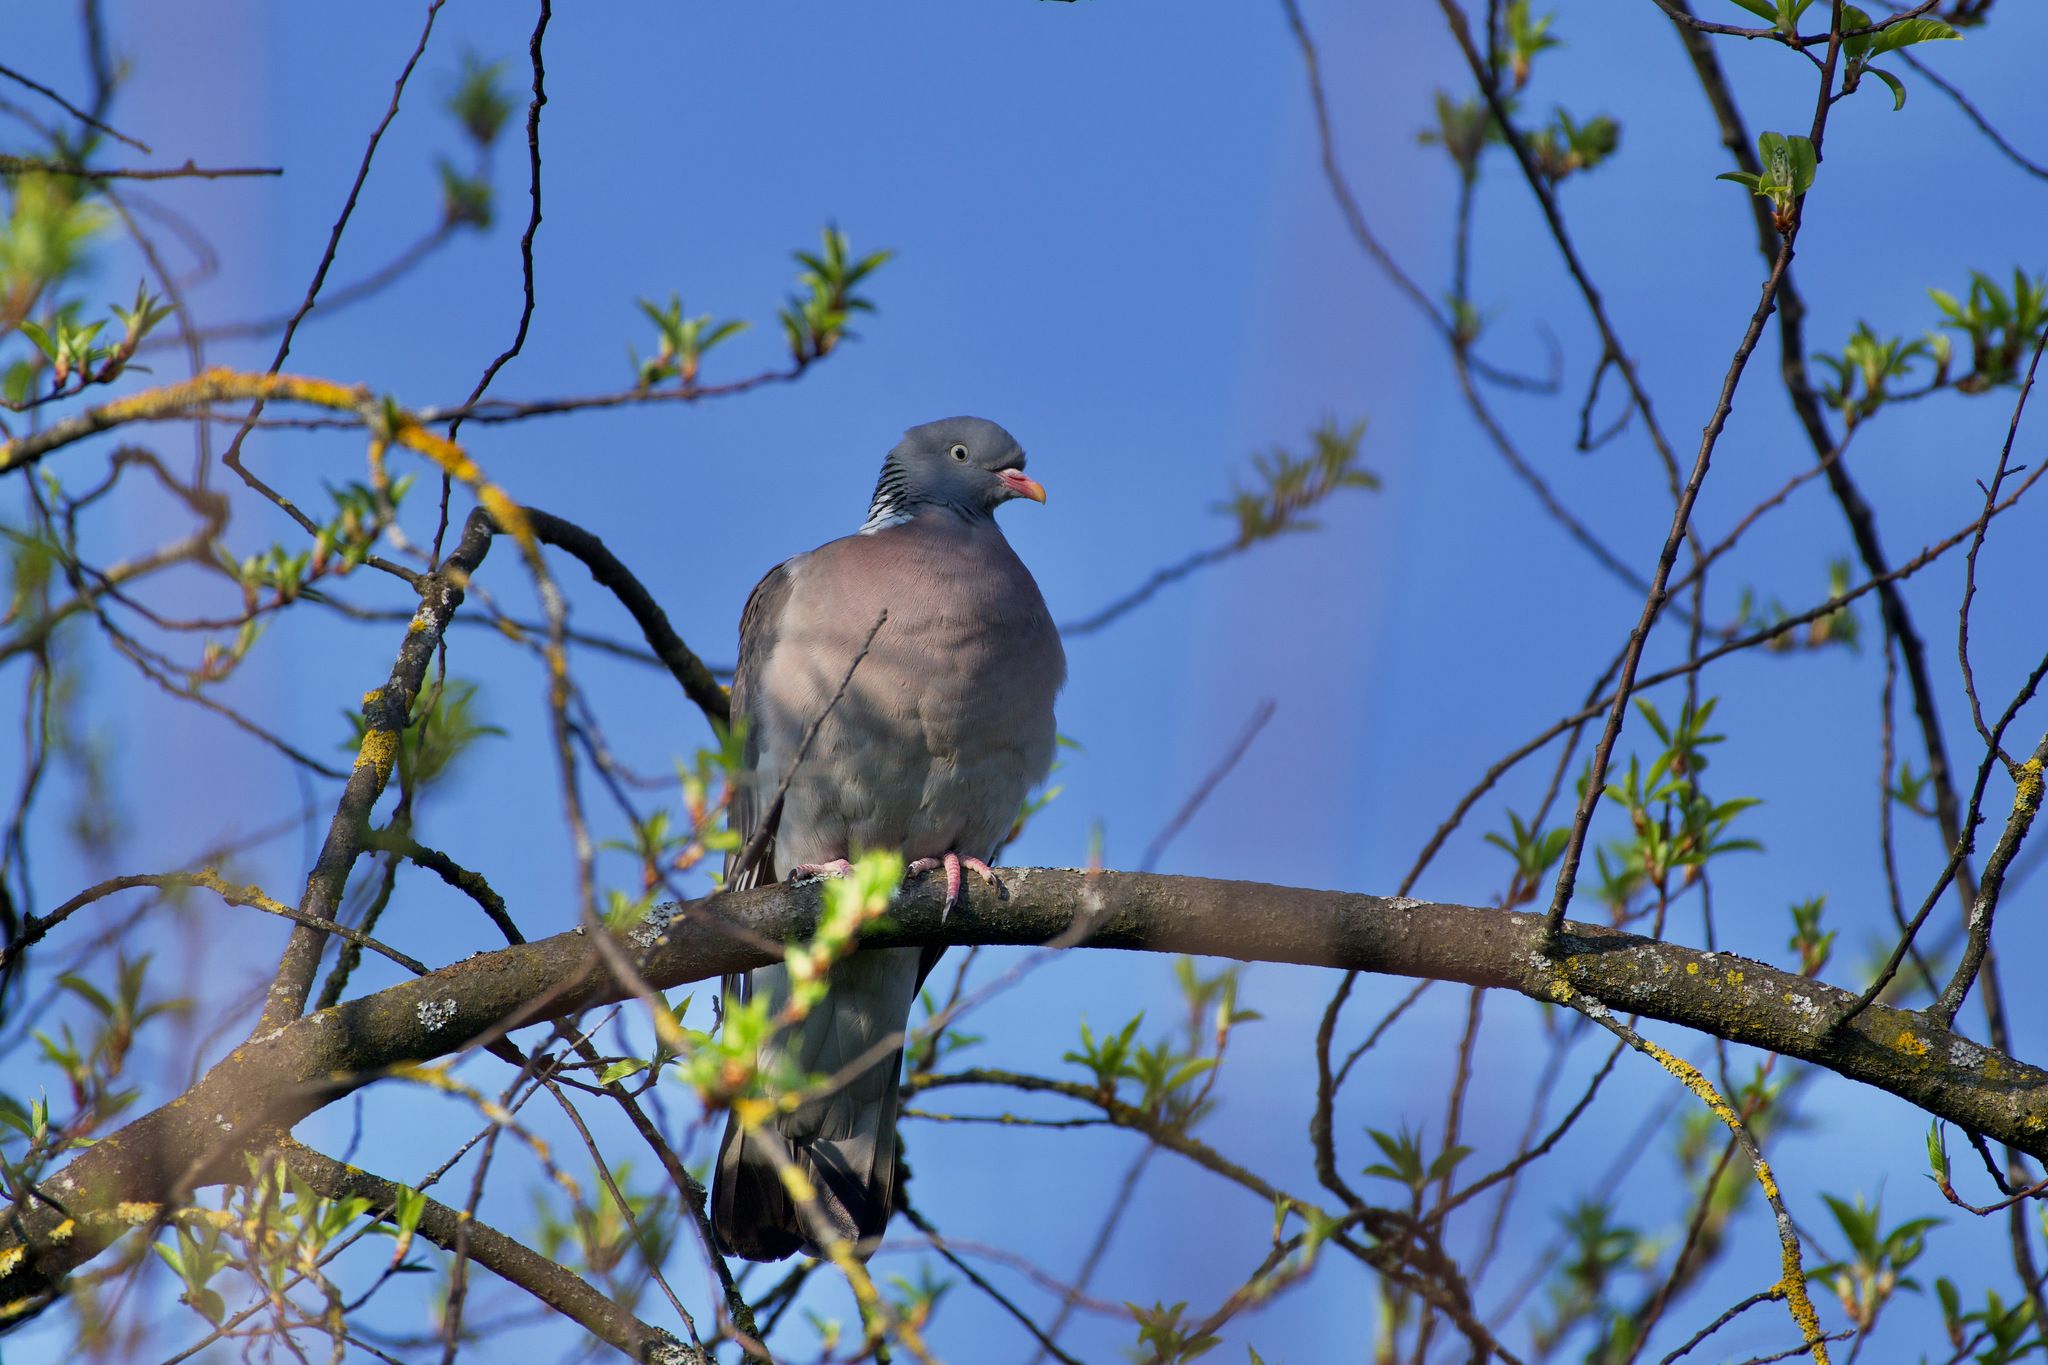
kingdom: Animalia
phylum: Chordata
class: Aves
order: Columbiformes
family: Columbidae
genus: Columba
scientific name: Columba palumbus
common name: Common wood pigeon
